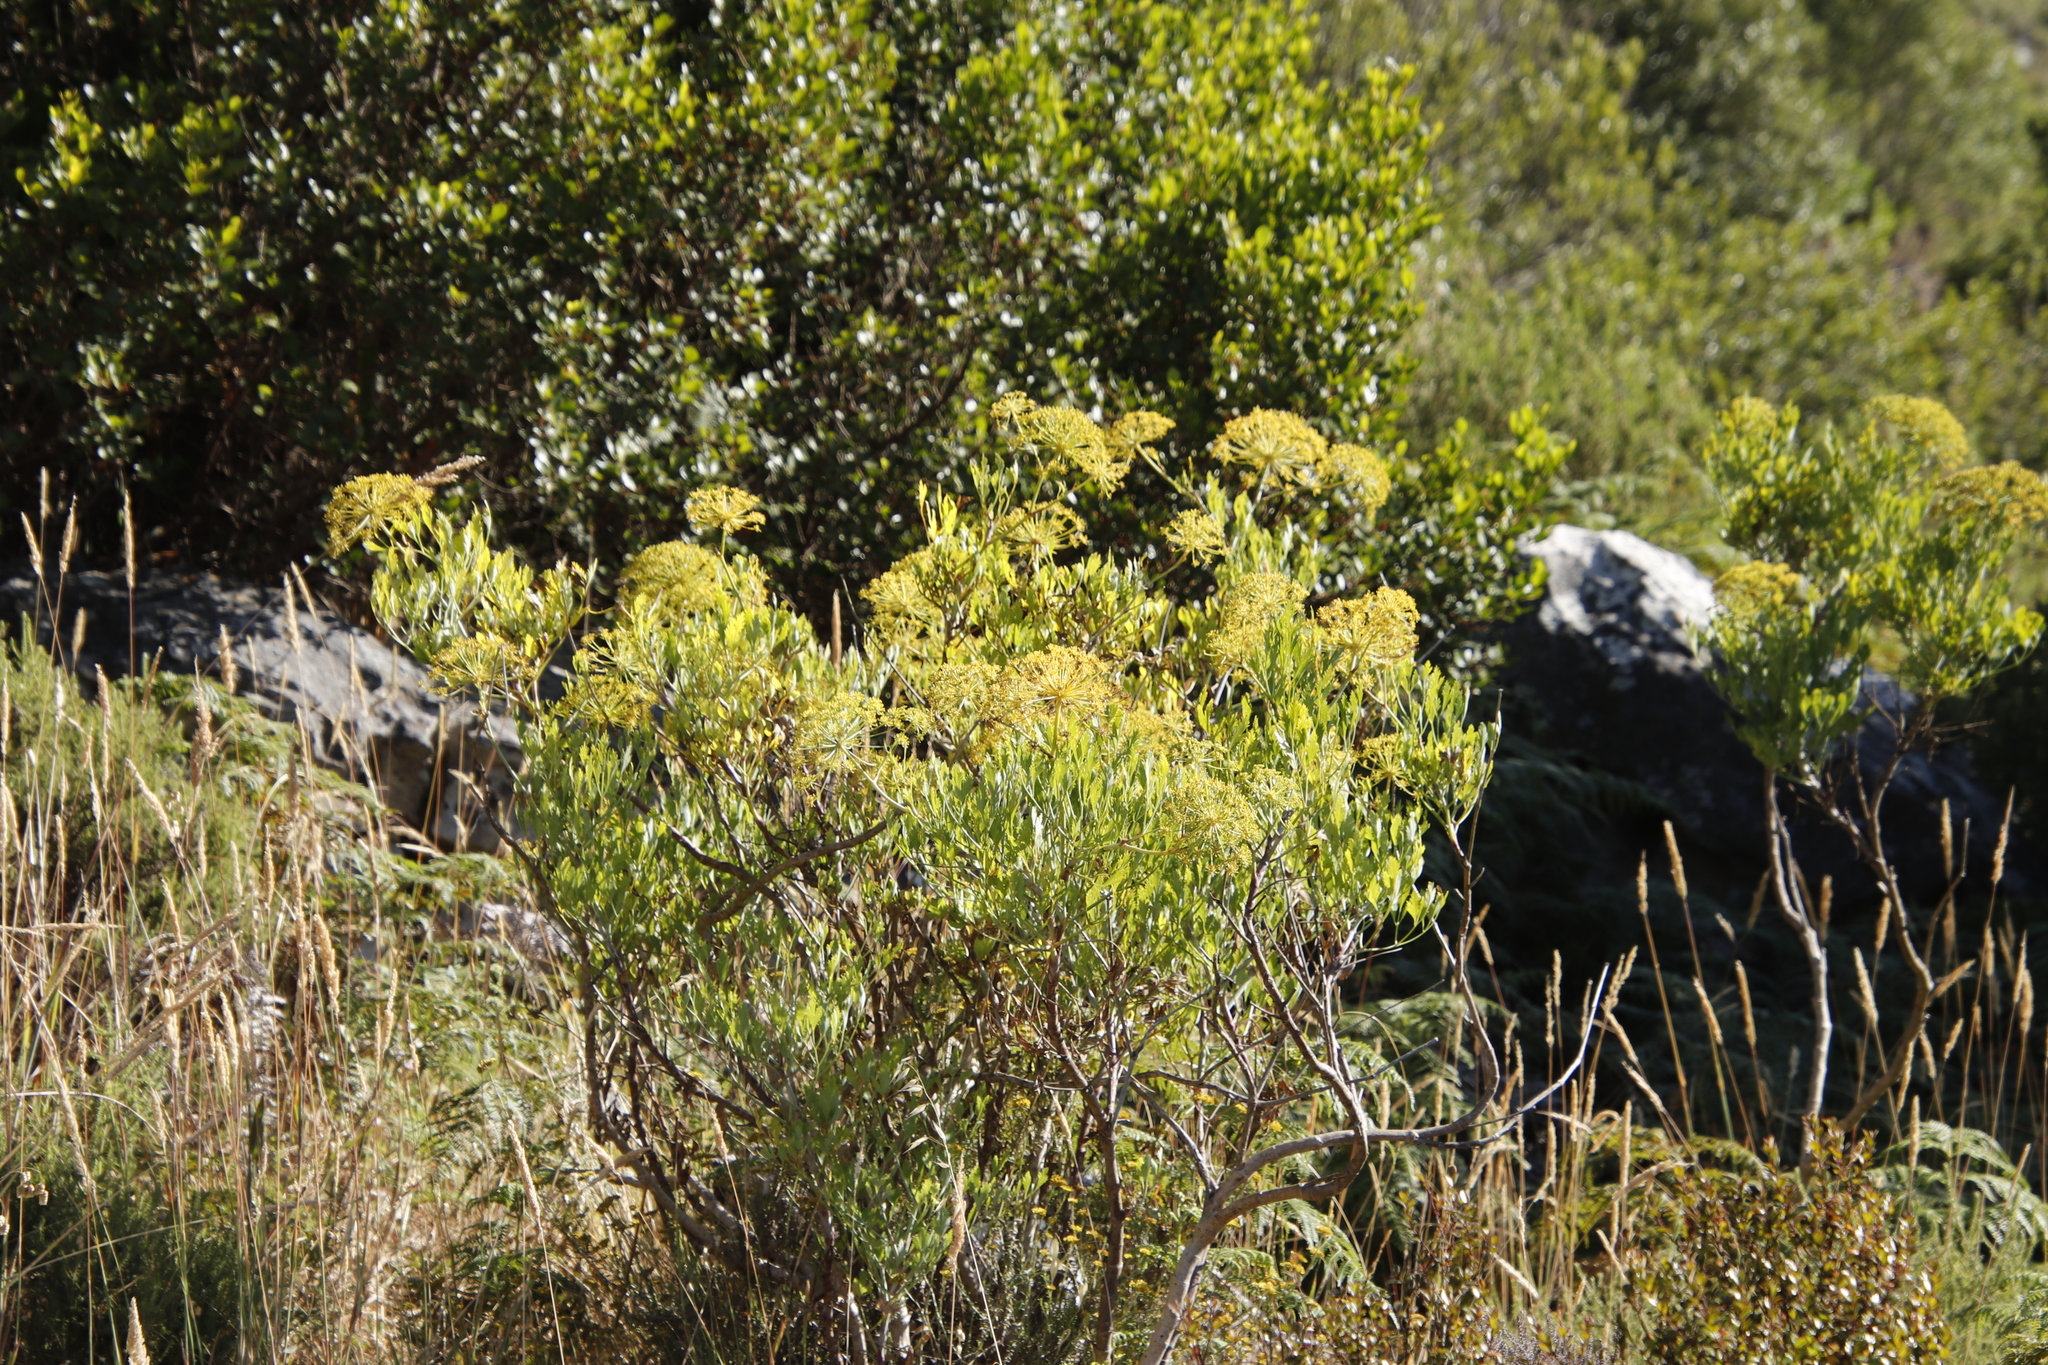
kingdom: Plantae
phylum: Tracheophyta
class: Magnoliopsida
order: Apiales
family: Apiaceae
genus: Notobubon
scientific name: Notobubon galbanum
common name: Blisterbush
